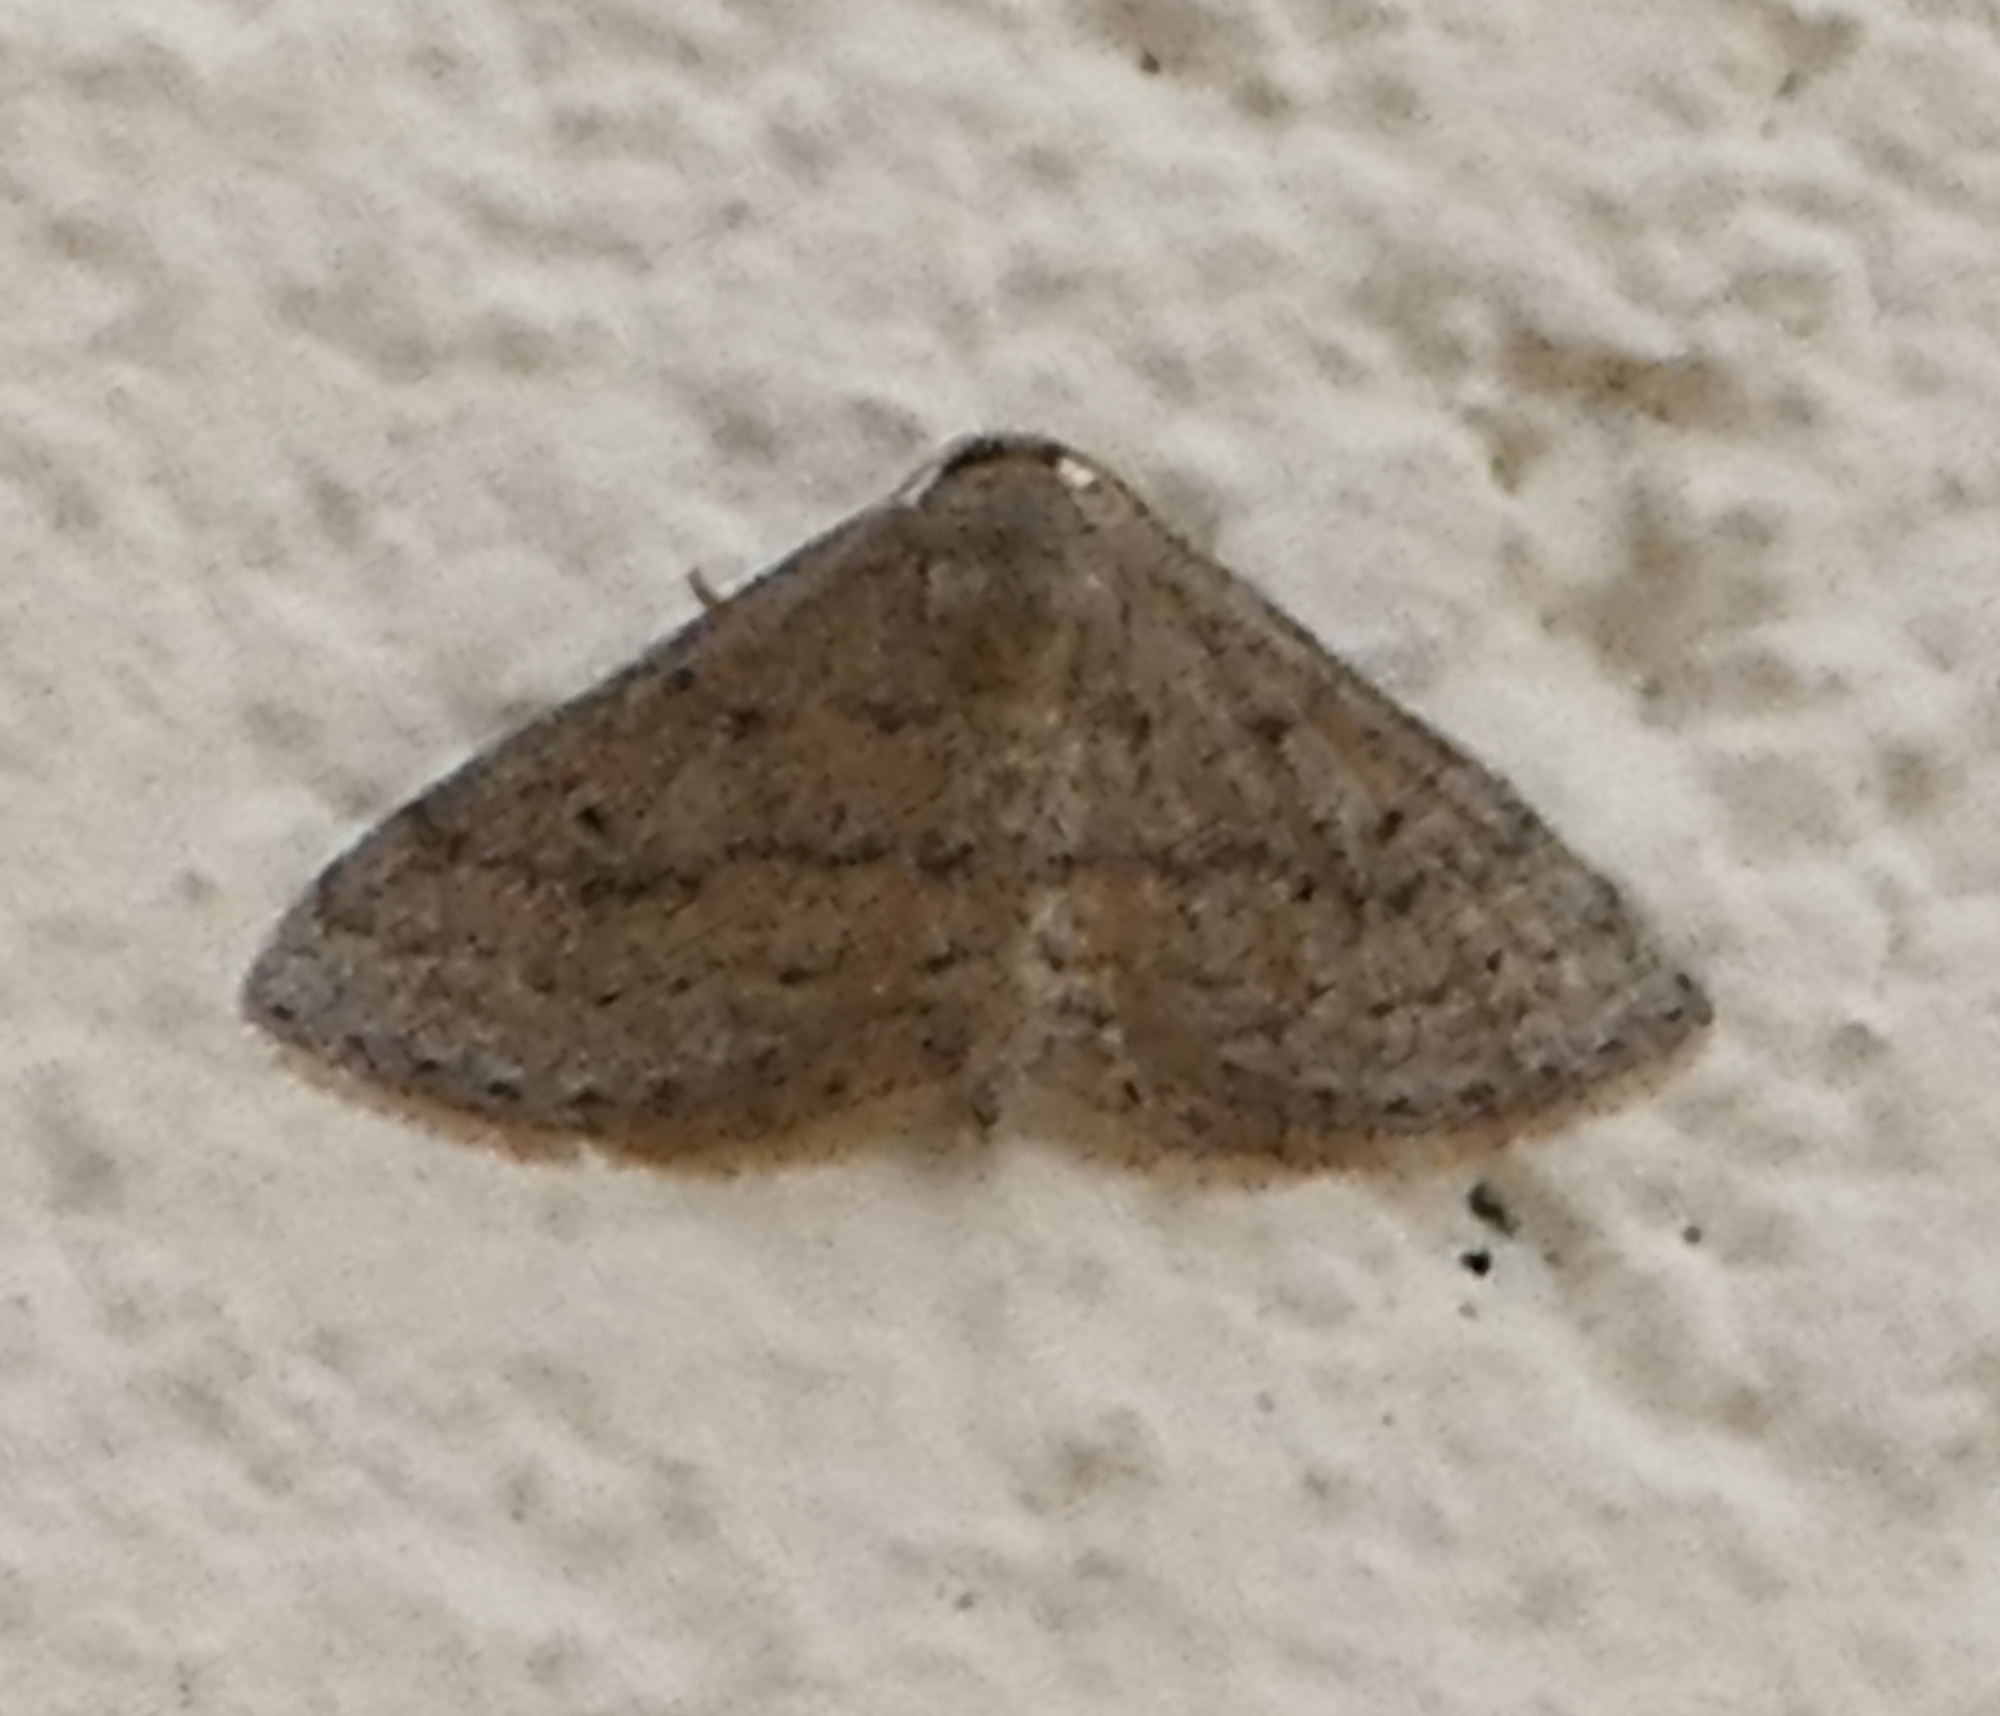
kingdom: Animalia
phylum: Arthropoda
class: Insecta
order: Lepidoptera
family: Geometridae
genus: Lobocleta
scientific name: Lobocleta ossularia
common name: Drab brown wave
